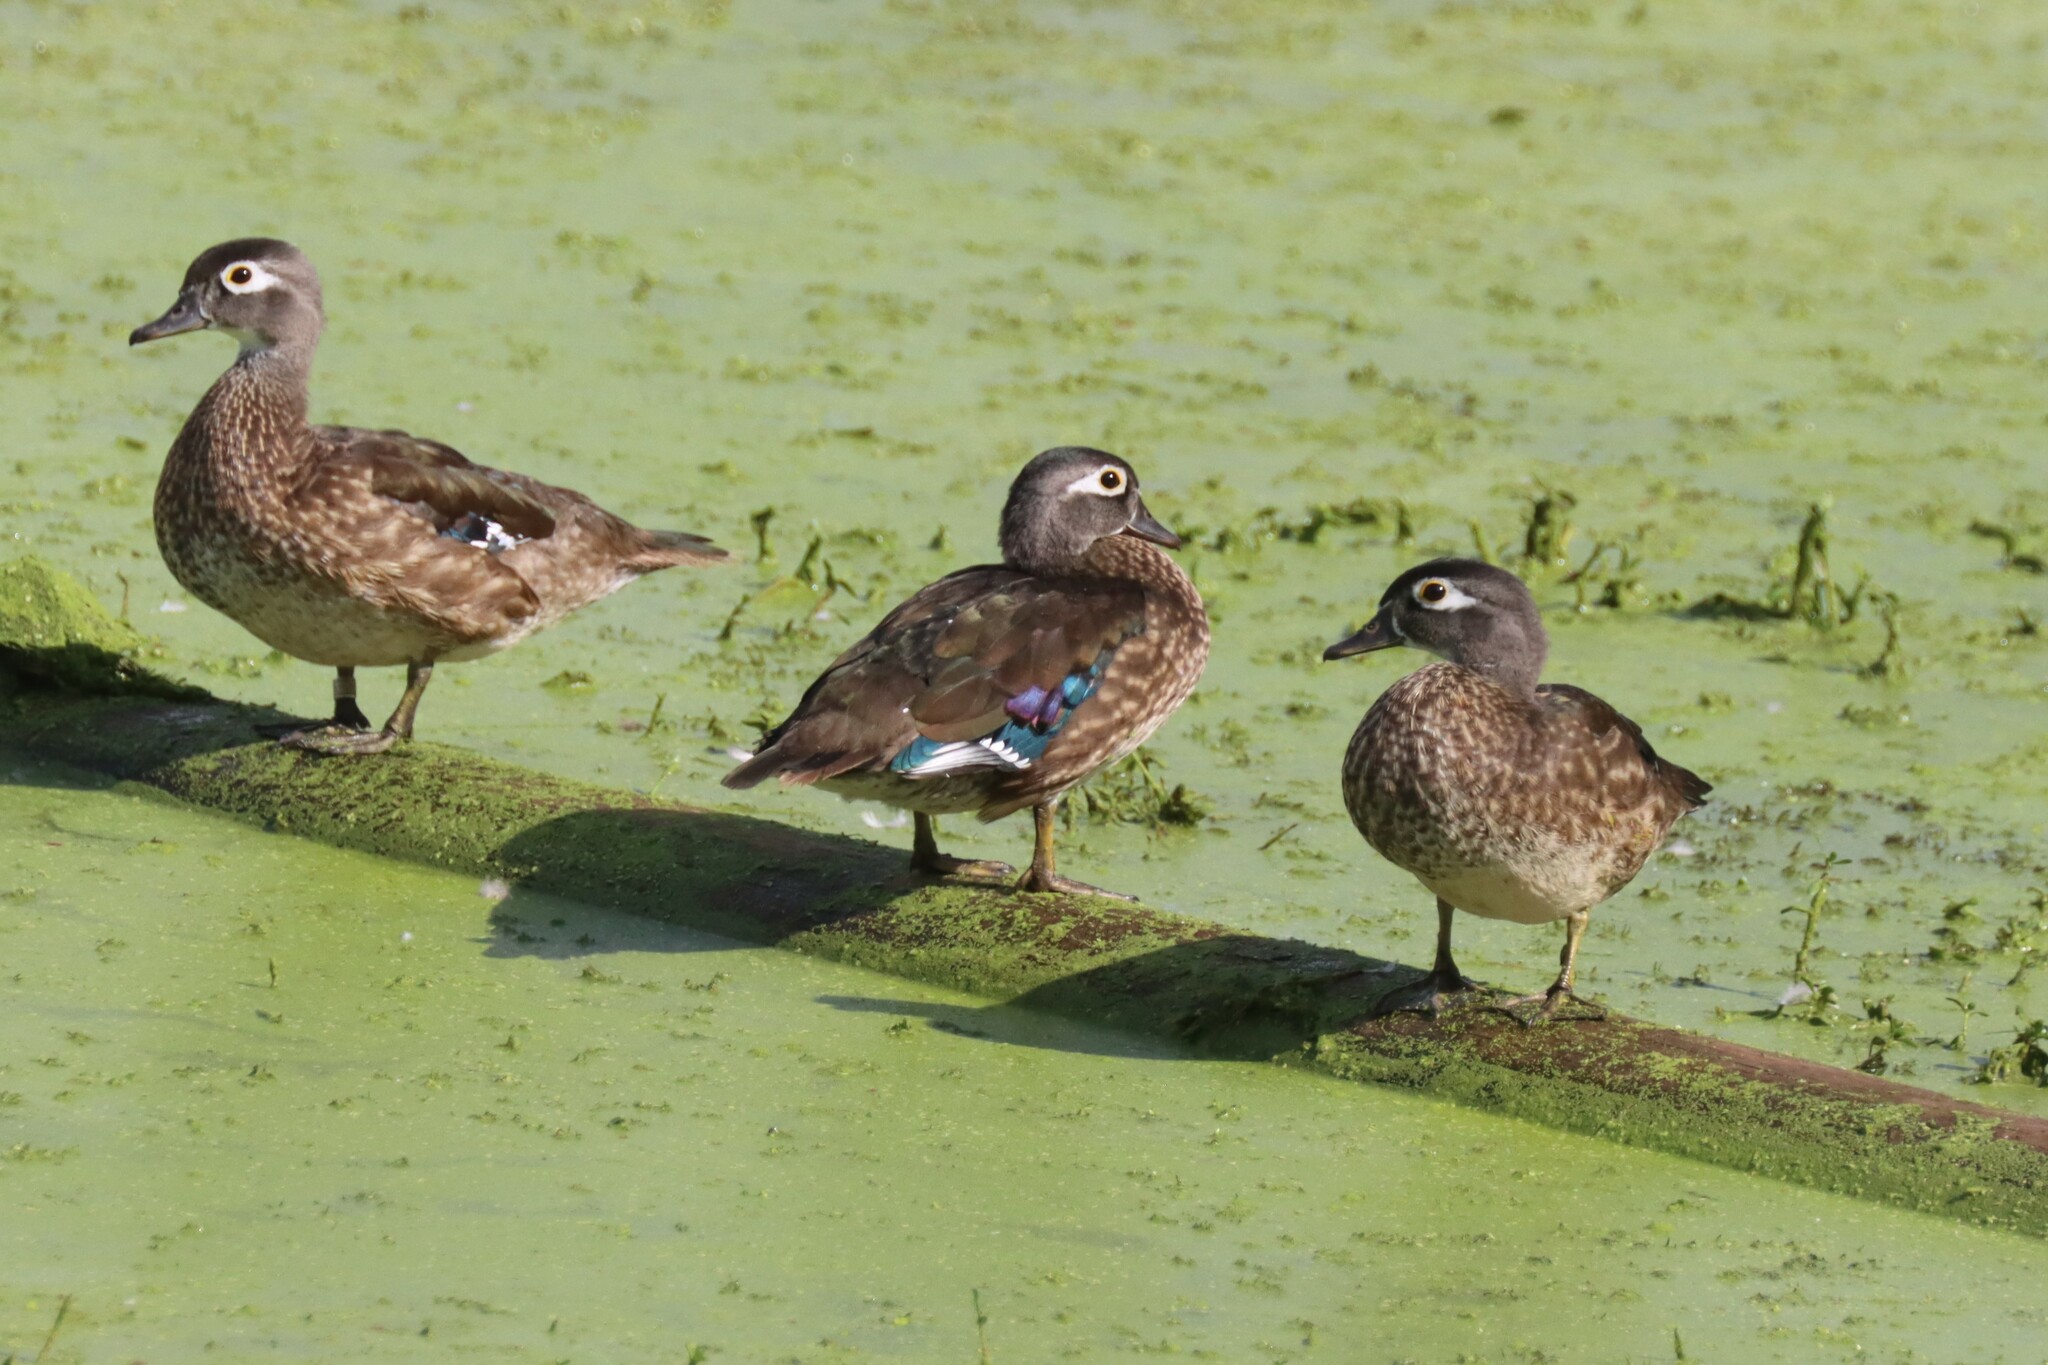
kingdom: Animalia
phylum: Chordata
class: Aves
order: Anseriformes
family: Anatidae
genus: Aix
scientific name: Aix sponsa
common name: Wood duck
